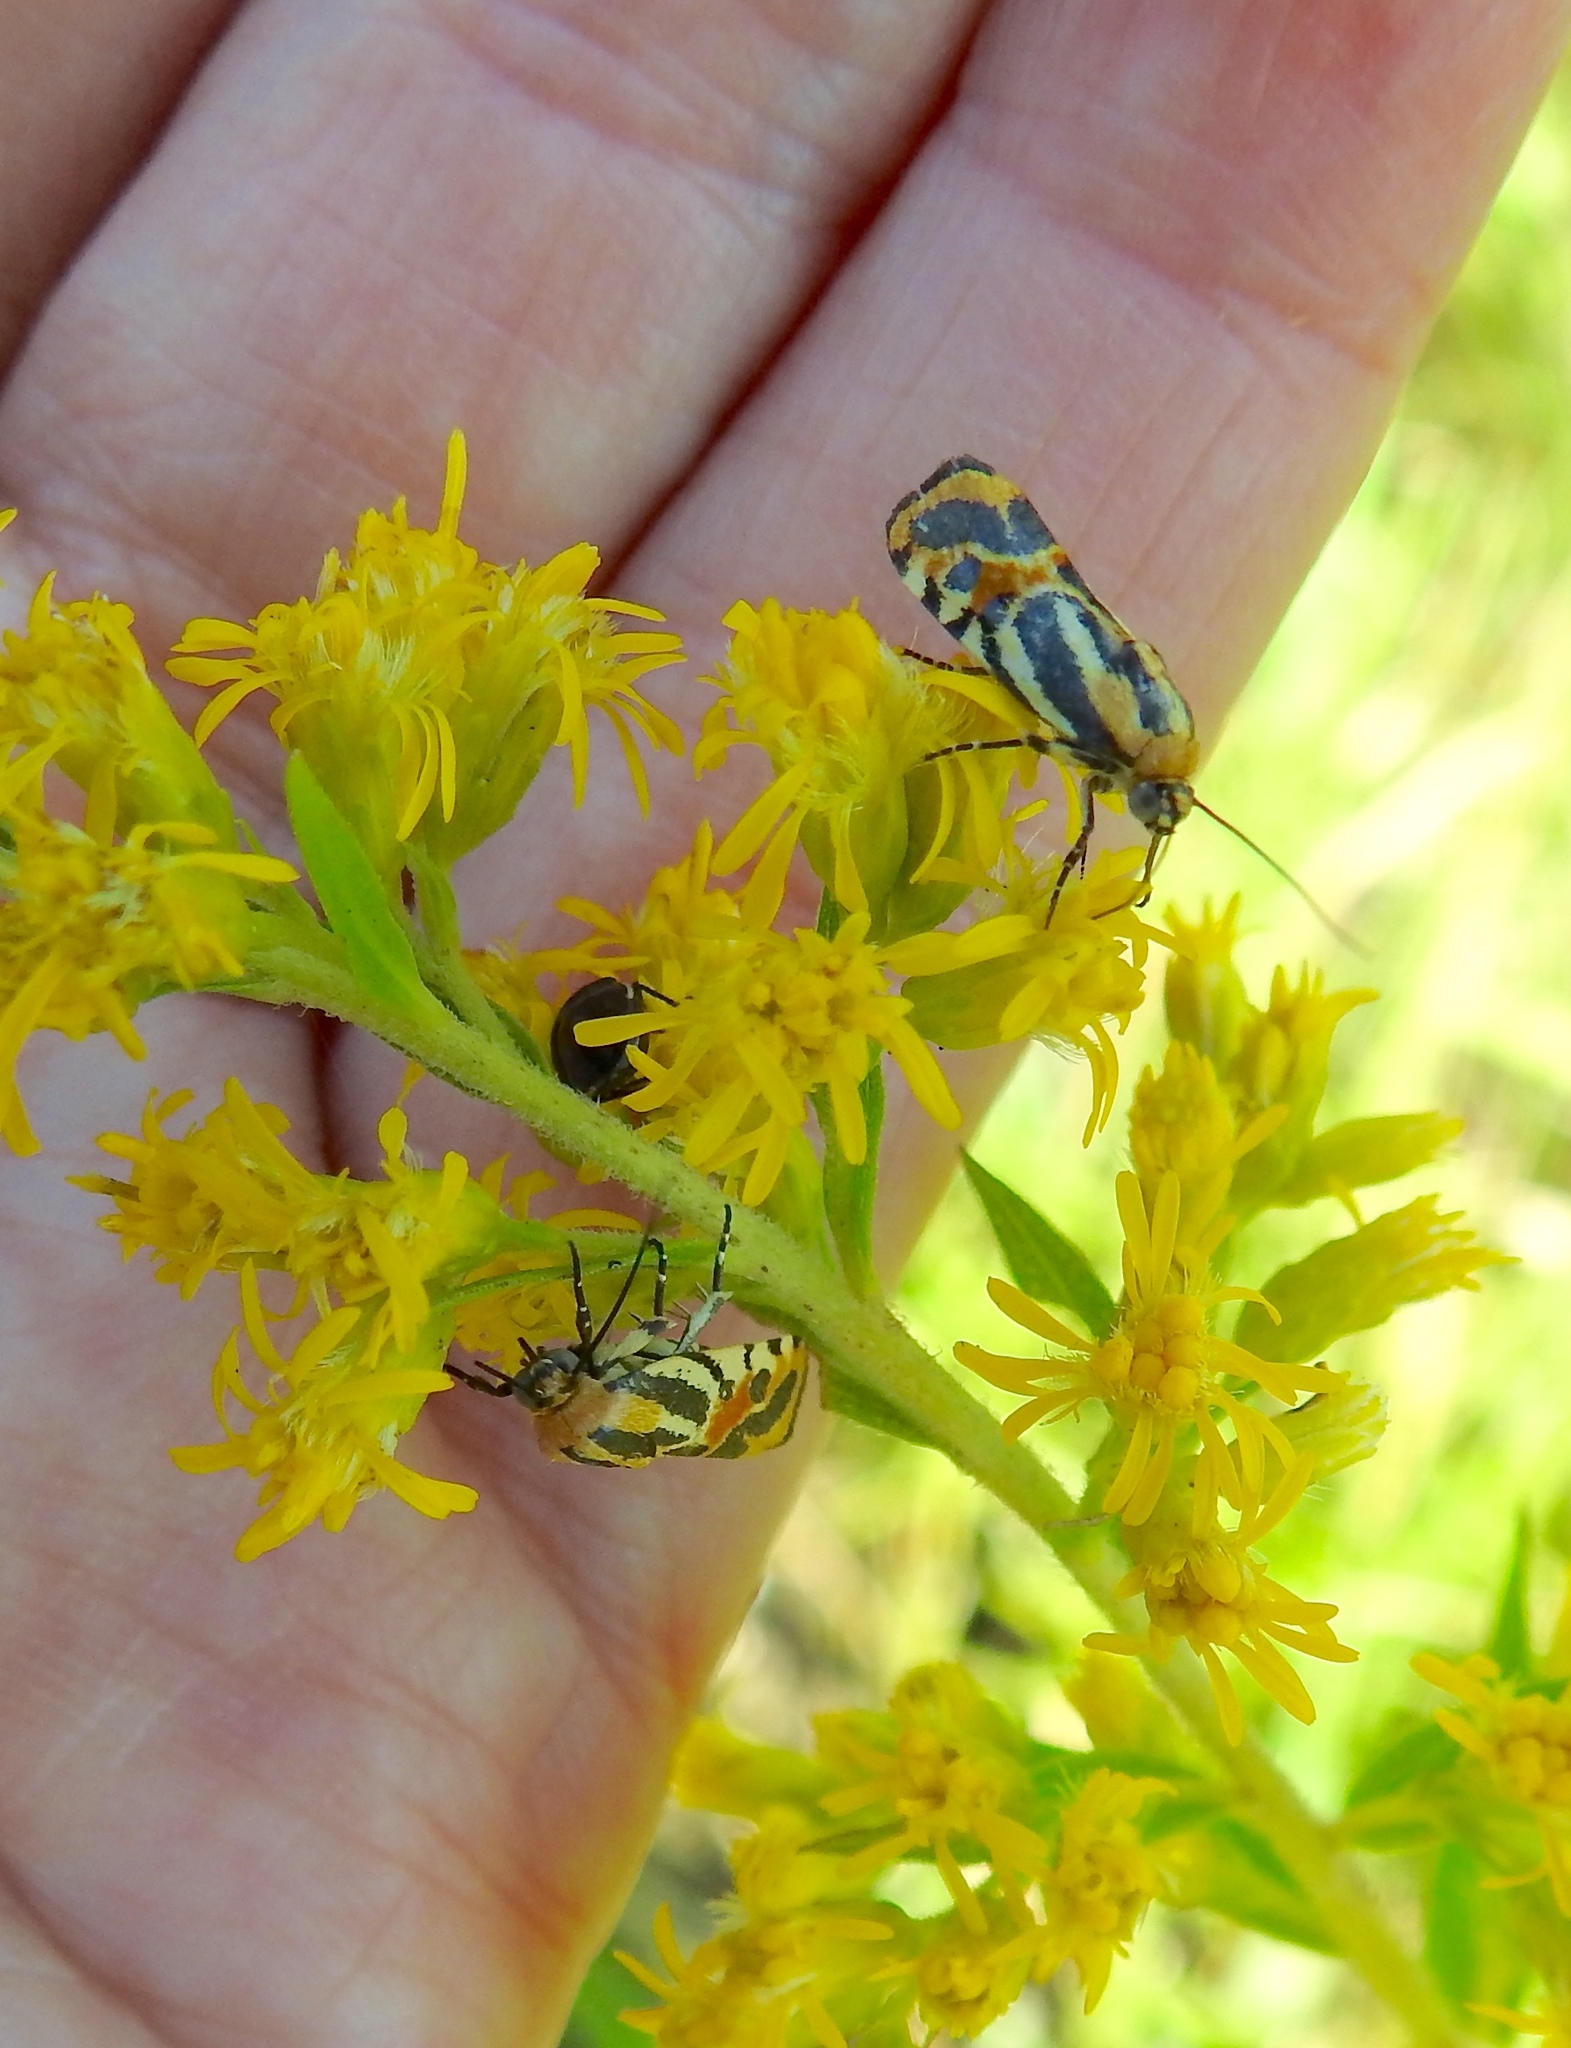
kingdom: Animalia
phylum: Arthropoda
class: Insecta
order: Lepidoptera
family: Noctuidae
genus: Acontia
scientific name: Acontia onagrus
